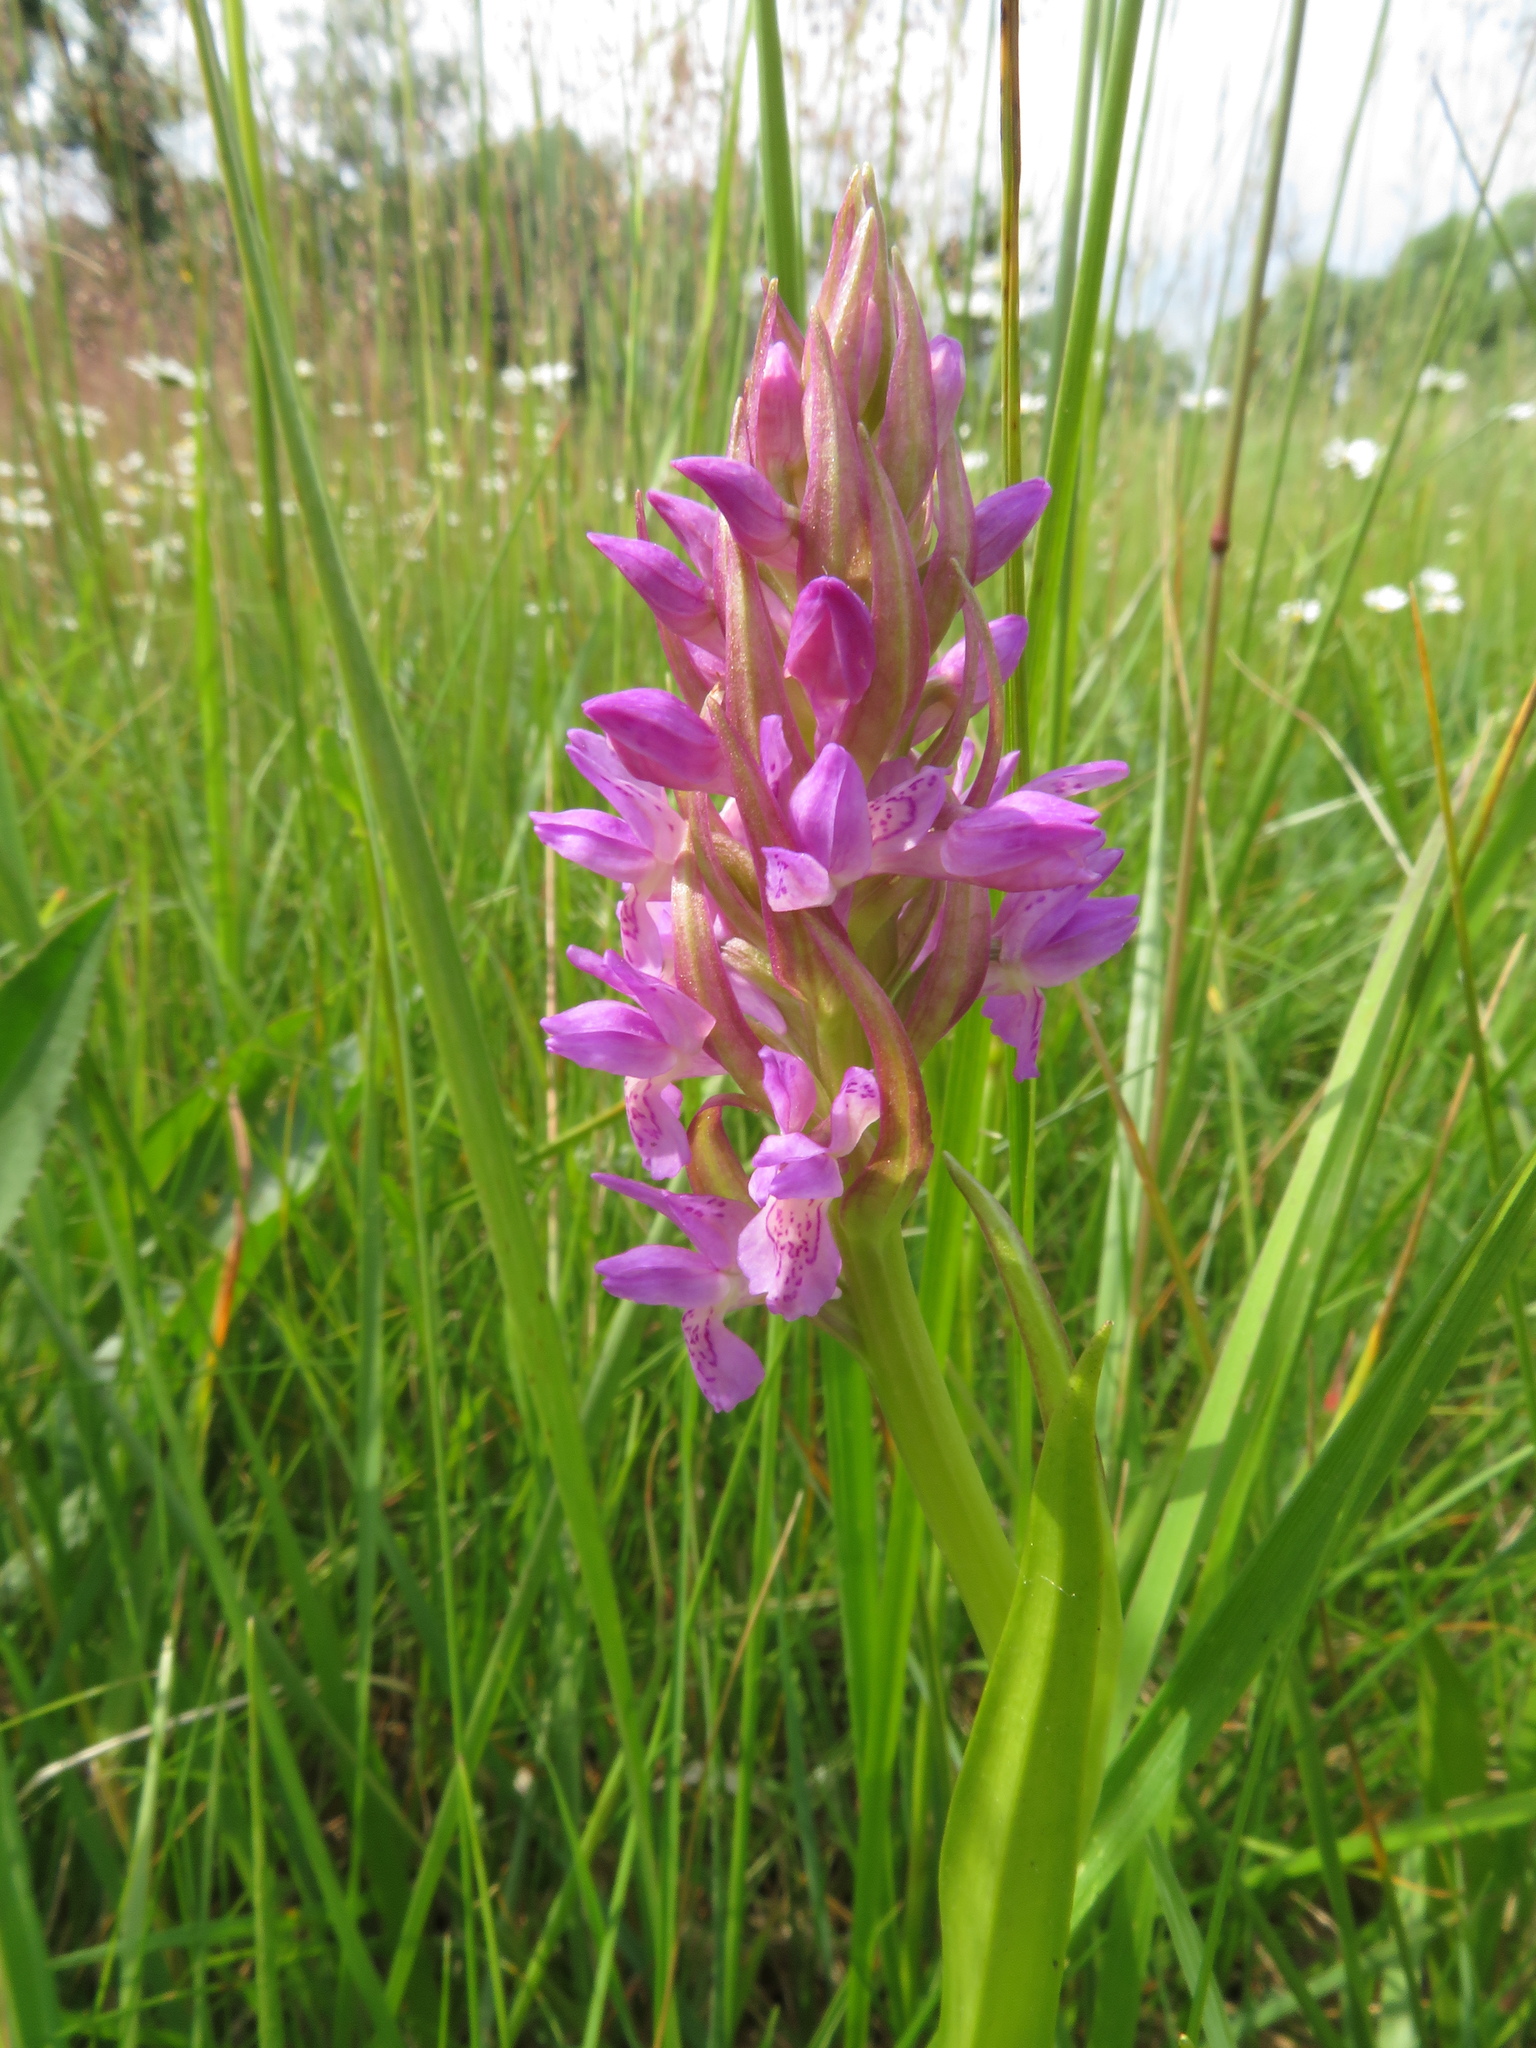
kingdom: Plantae
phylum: Tracheophyta
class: Liliopsida
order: Asparagales
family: Orchidaceae
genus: Dactylorhiza
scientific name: Dactylorhiza incarnata
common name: Early marsh-orchid
